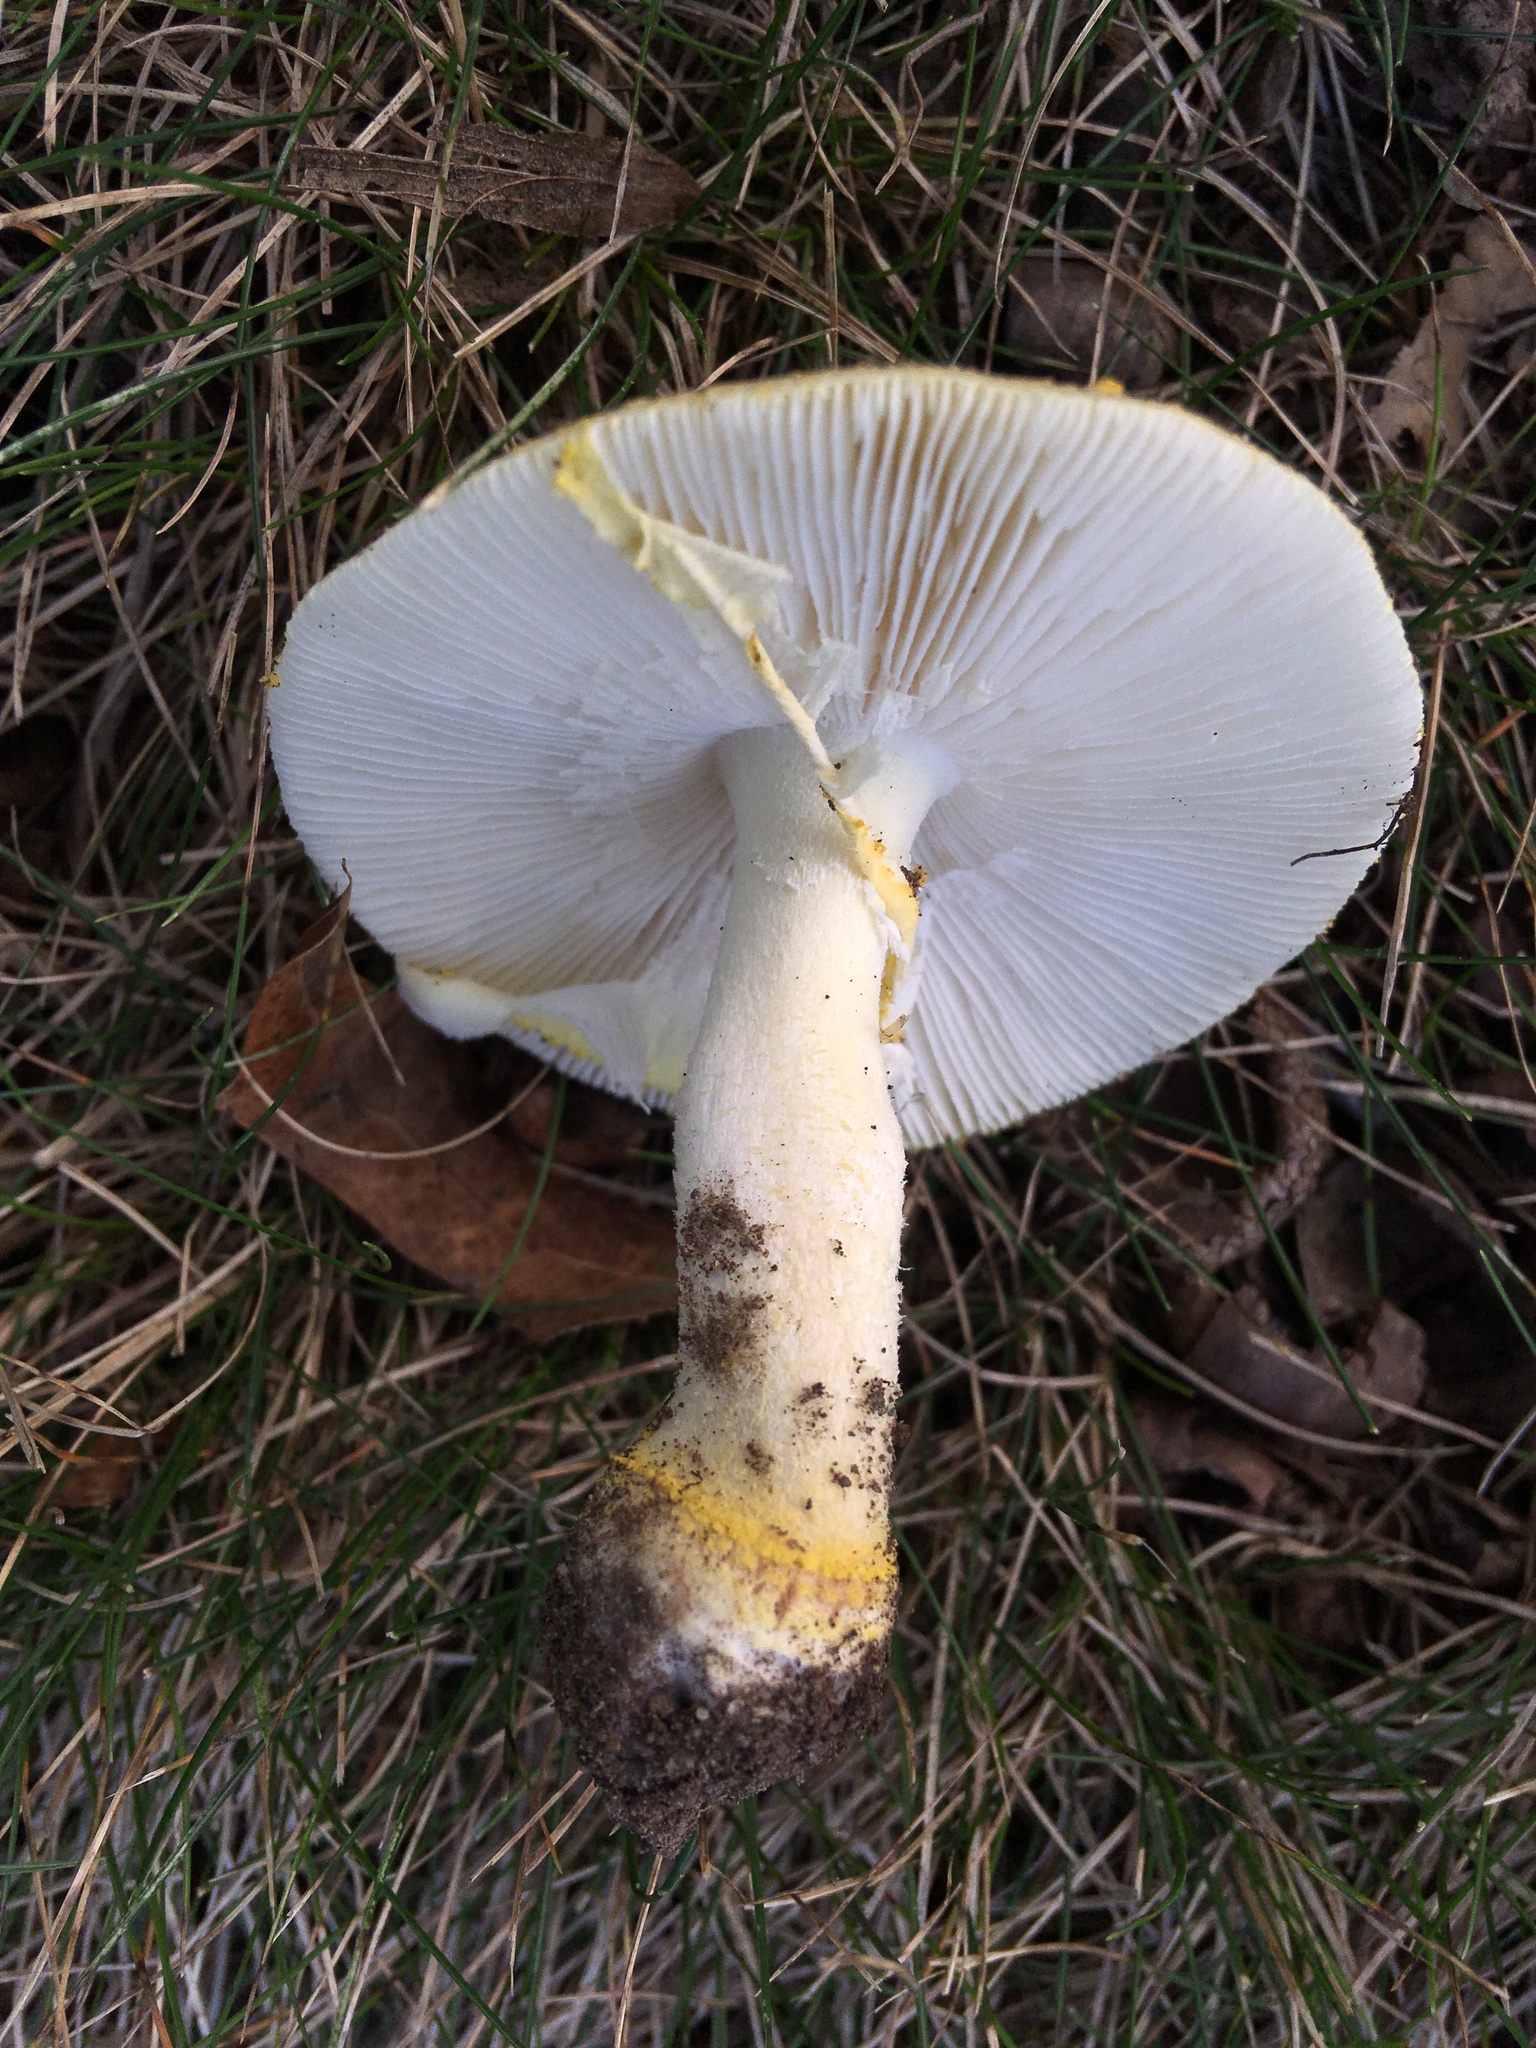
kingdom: Fungi
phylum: Basidiomycota
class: Agaricomycetes
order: Agaricales
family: Amanitaceae
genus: Amanita
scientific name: Amanita flavorubens
